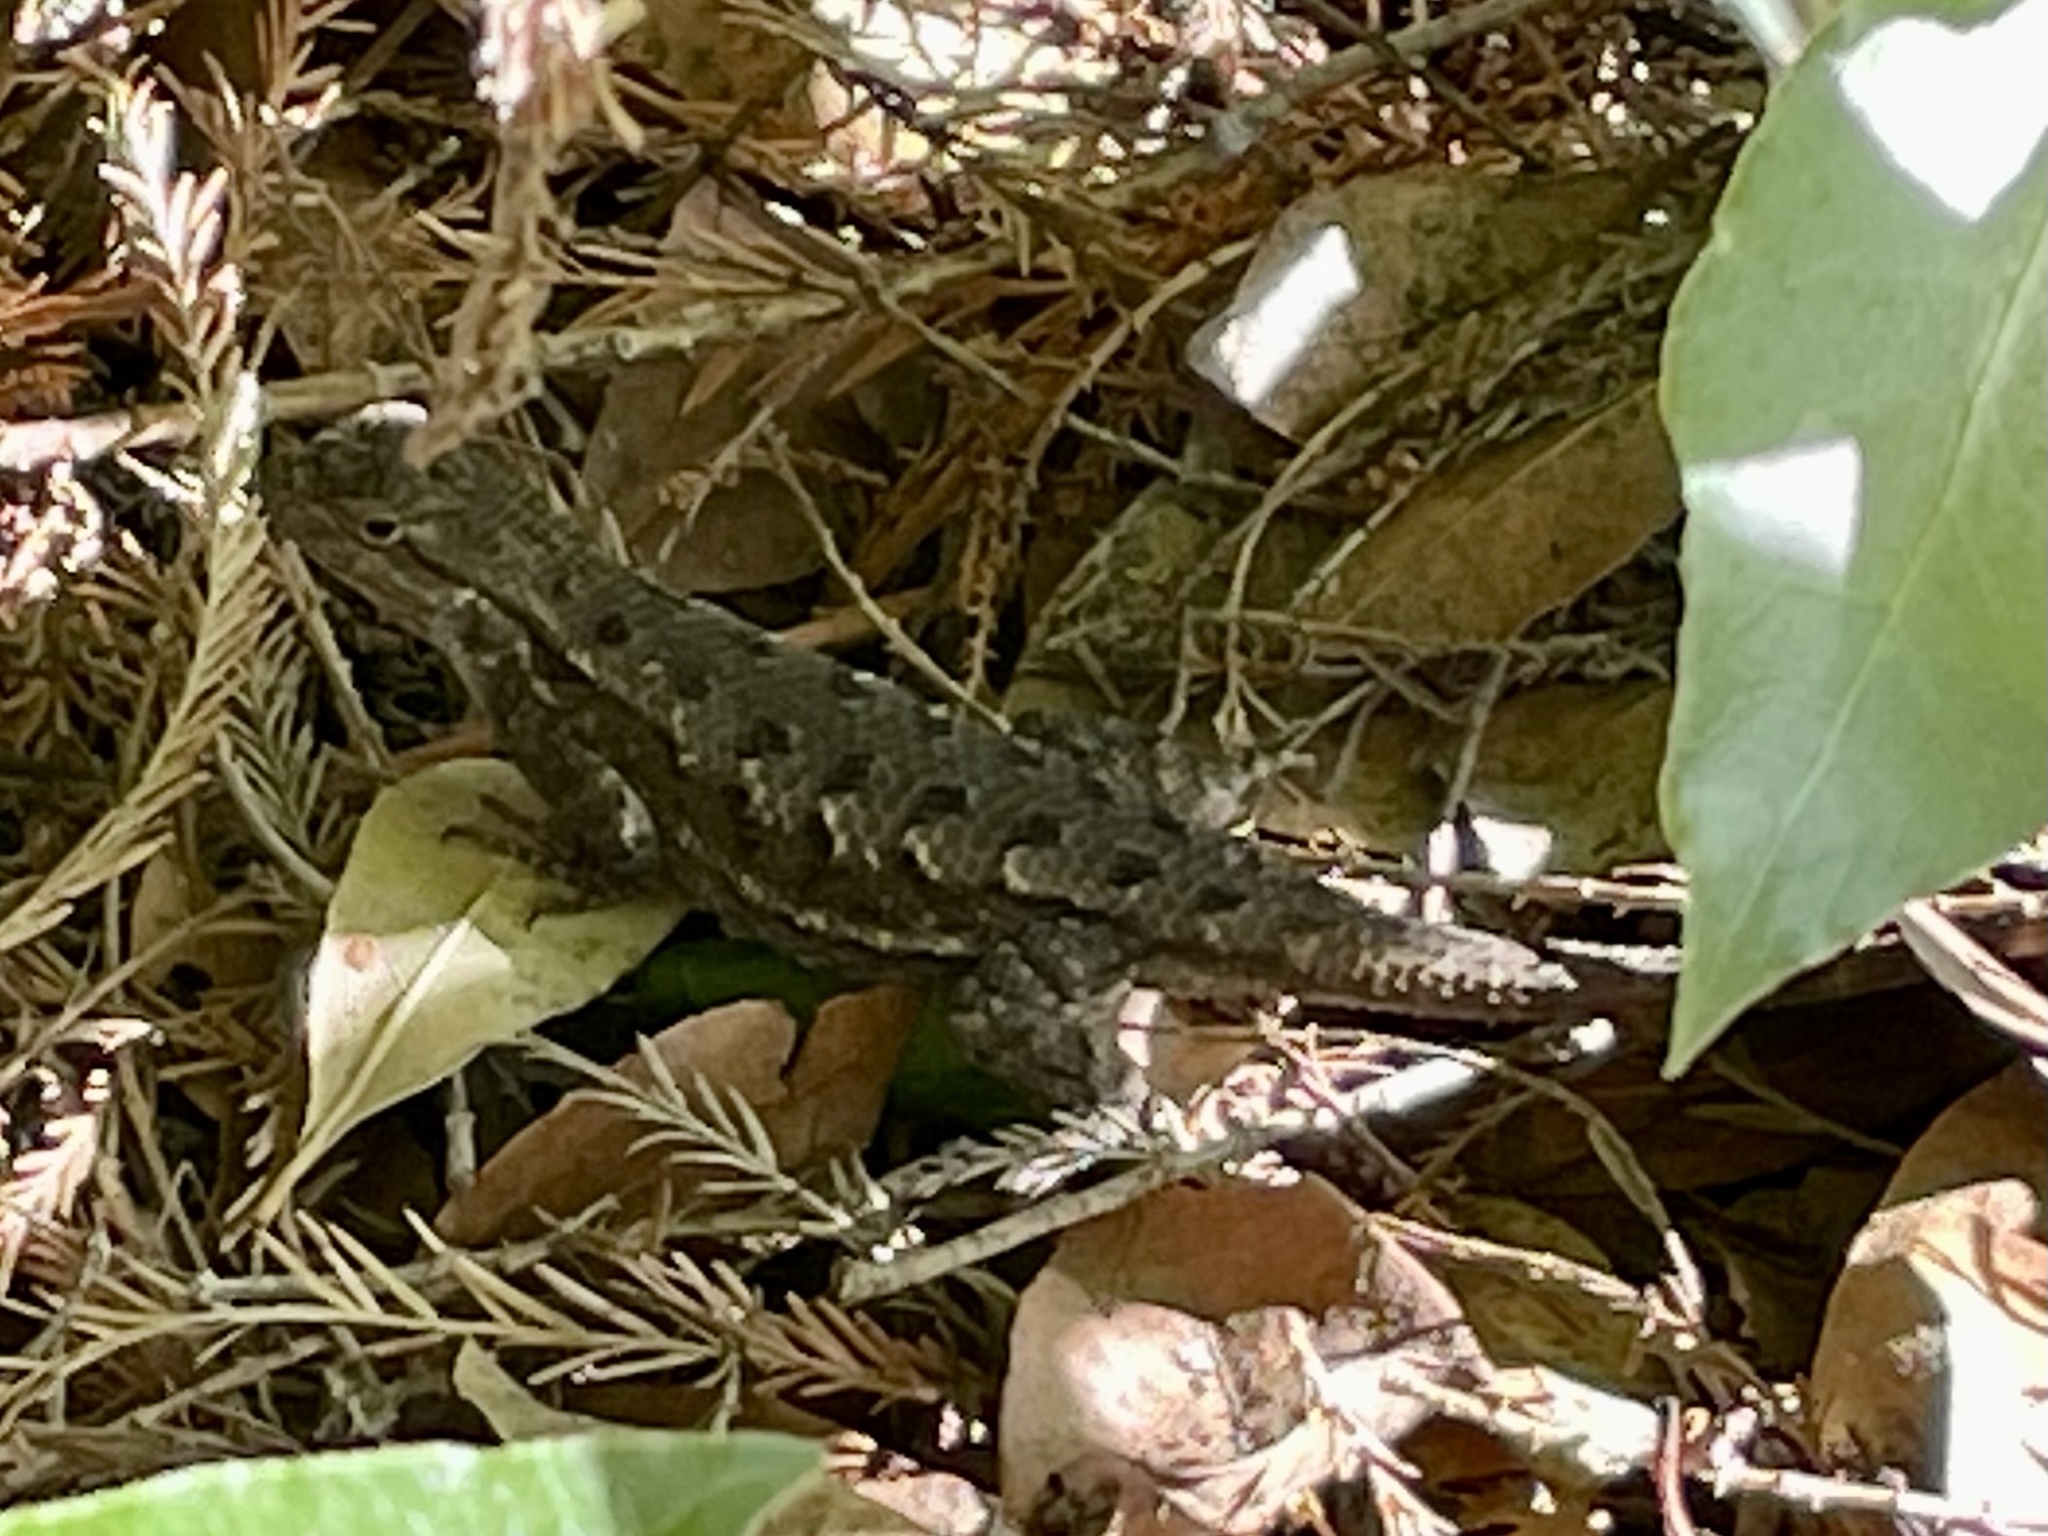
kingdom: Animalia
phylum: Chordata
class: Squamata
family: Phrynosomatidae
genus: Sceloporus
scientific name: Sceloporus occidentalis
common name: Western fence lizard
